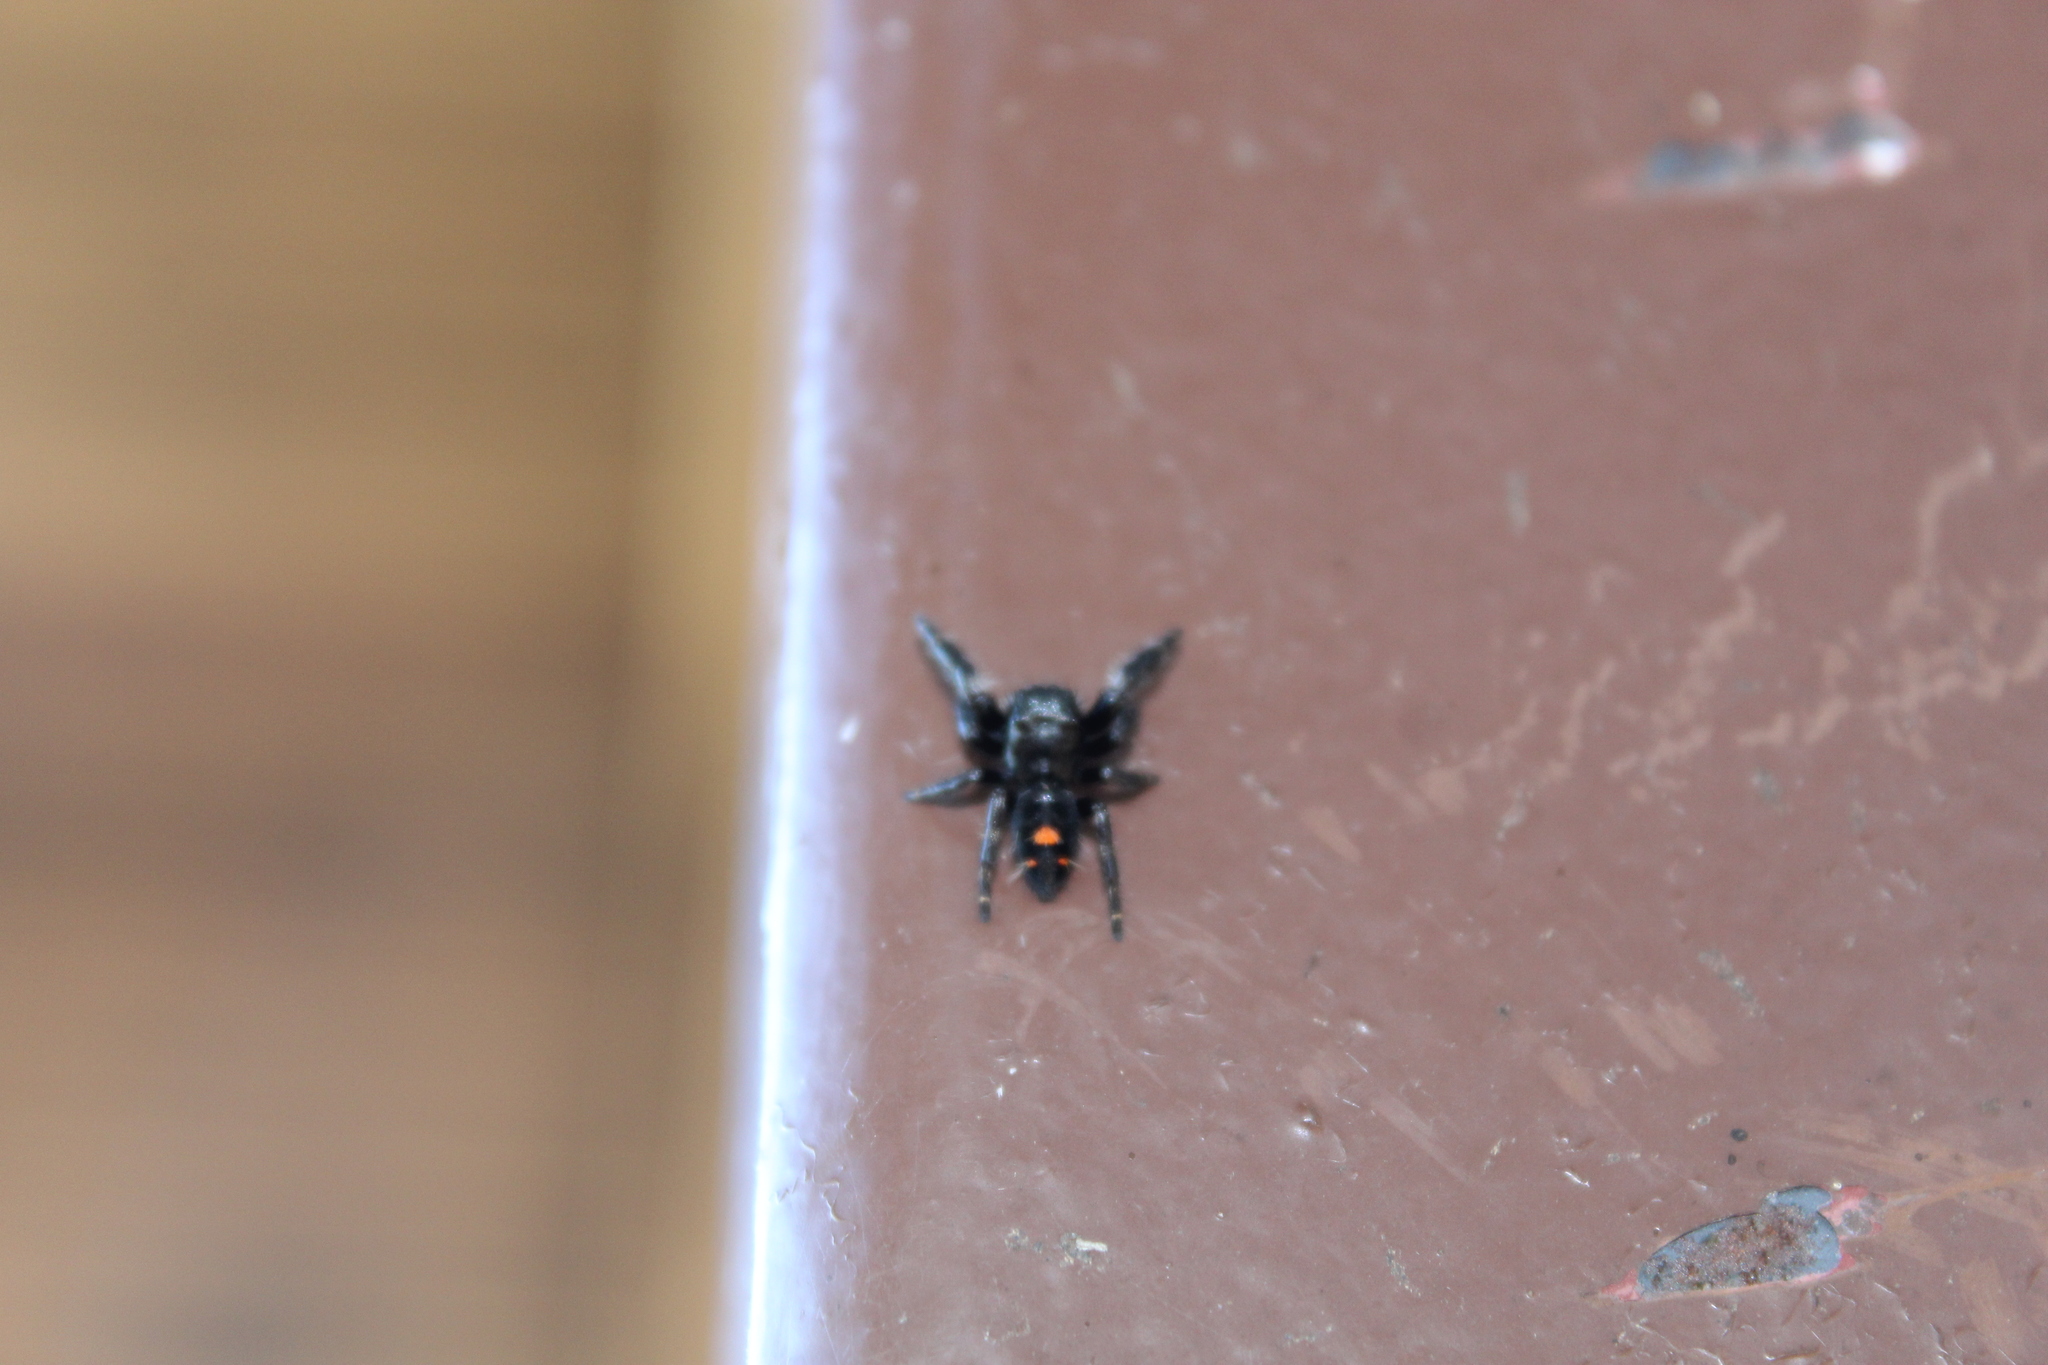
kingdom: Animalia
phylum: Arthropoda
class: Arachnida
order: Araneae
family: Salticidae
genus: Phidippus
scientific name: Phidippus audax
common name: Bold jumper
